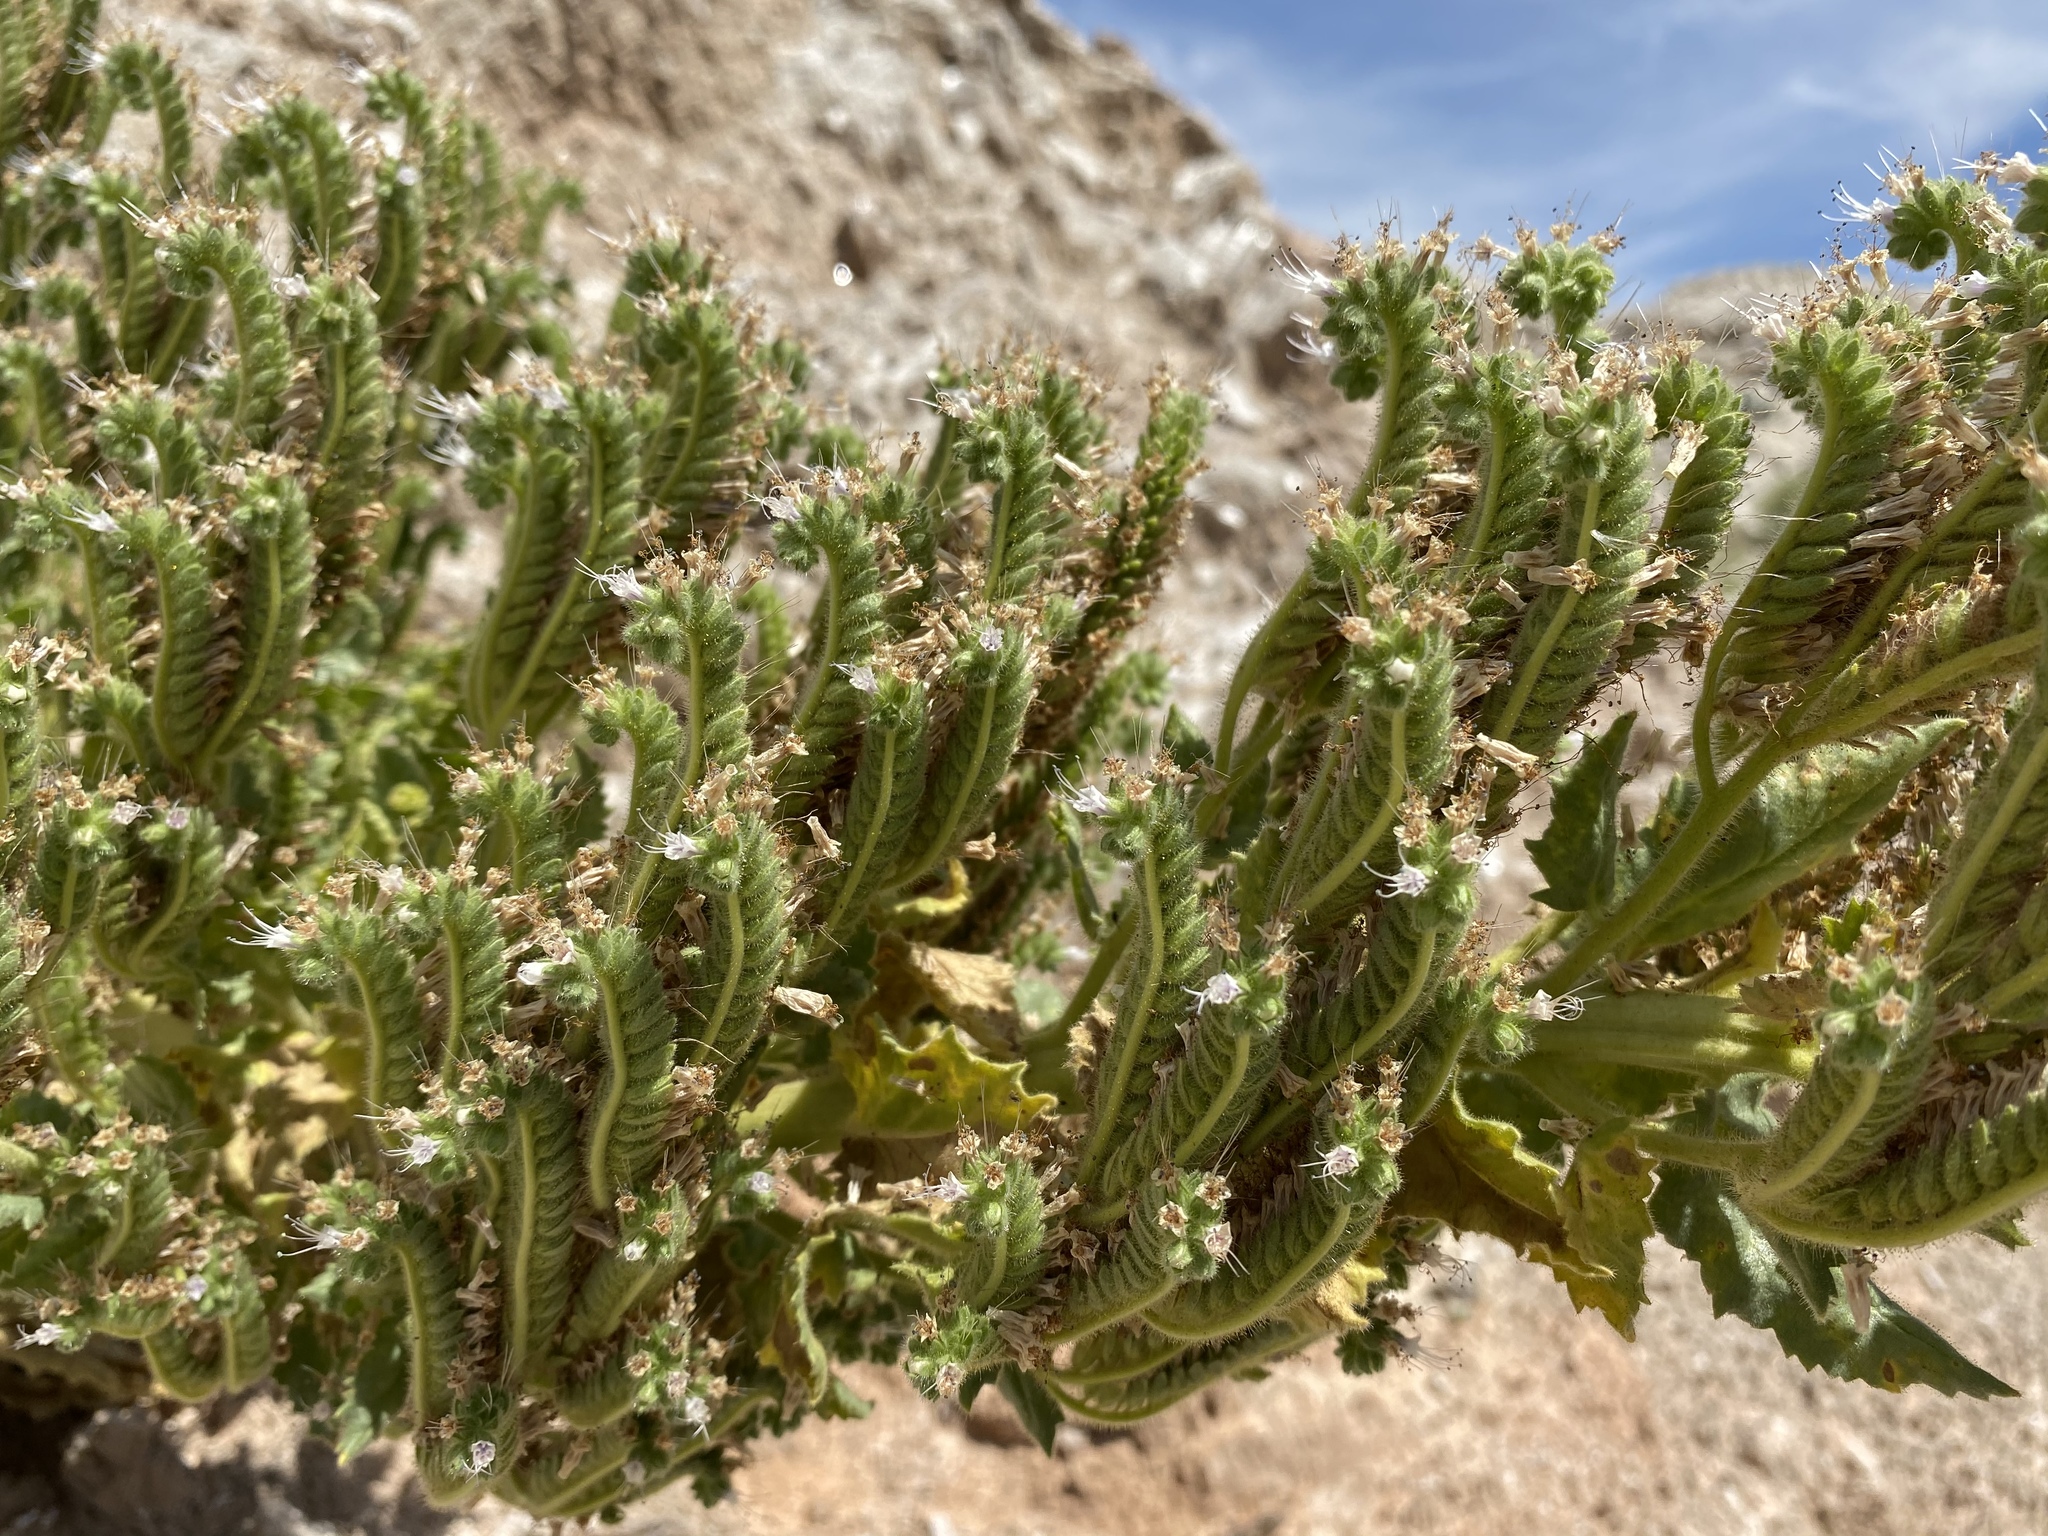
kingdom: Plantae
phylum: Tracheophyta
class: Magnoliopsida
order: Boraginales
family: Hydrophyllaceae
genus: Phacelia
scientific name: Phacelia palmeri
